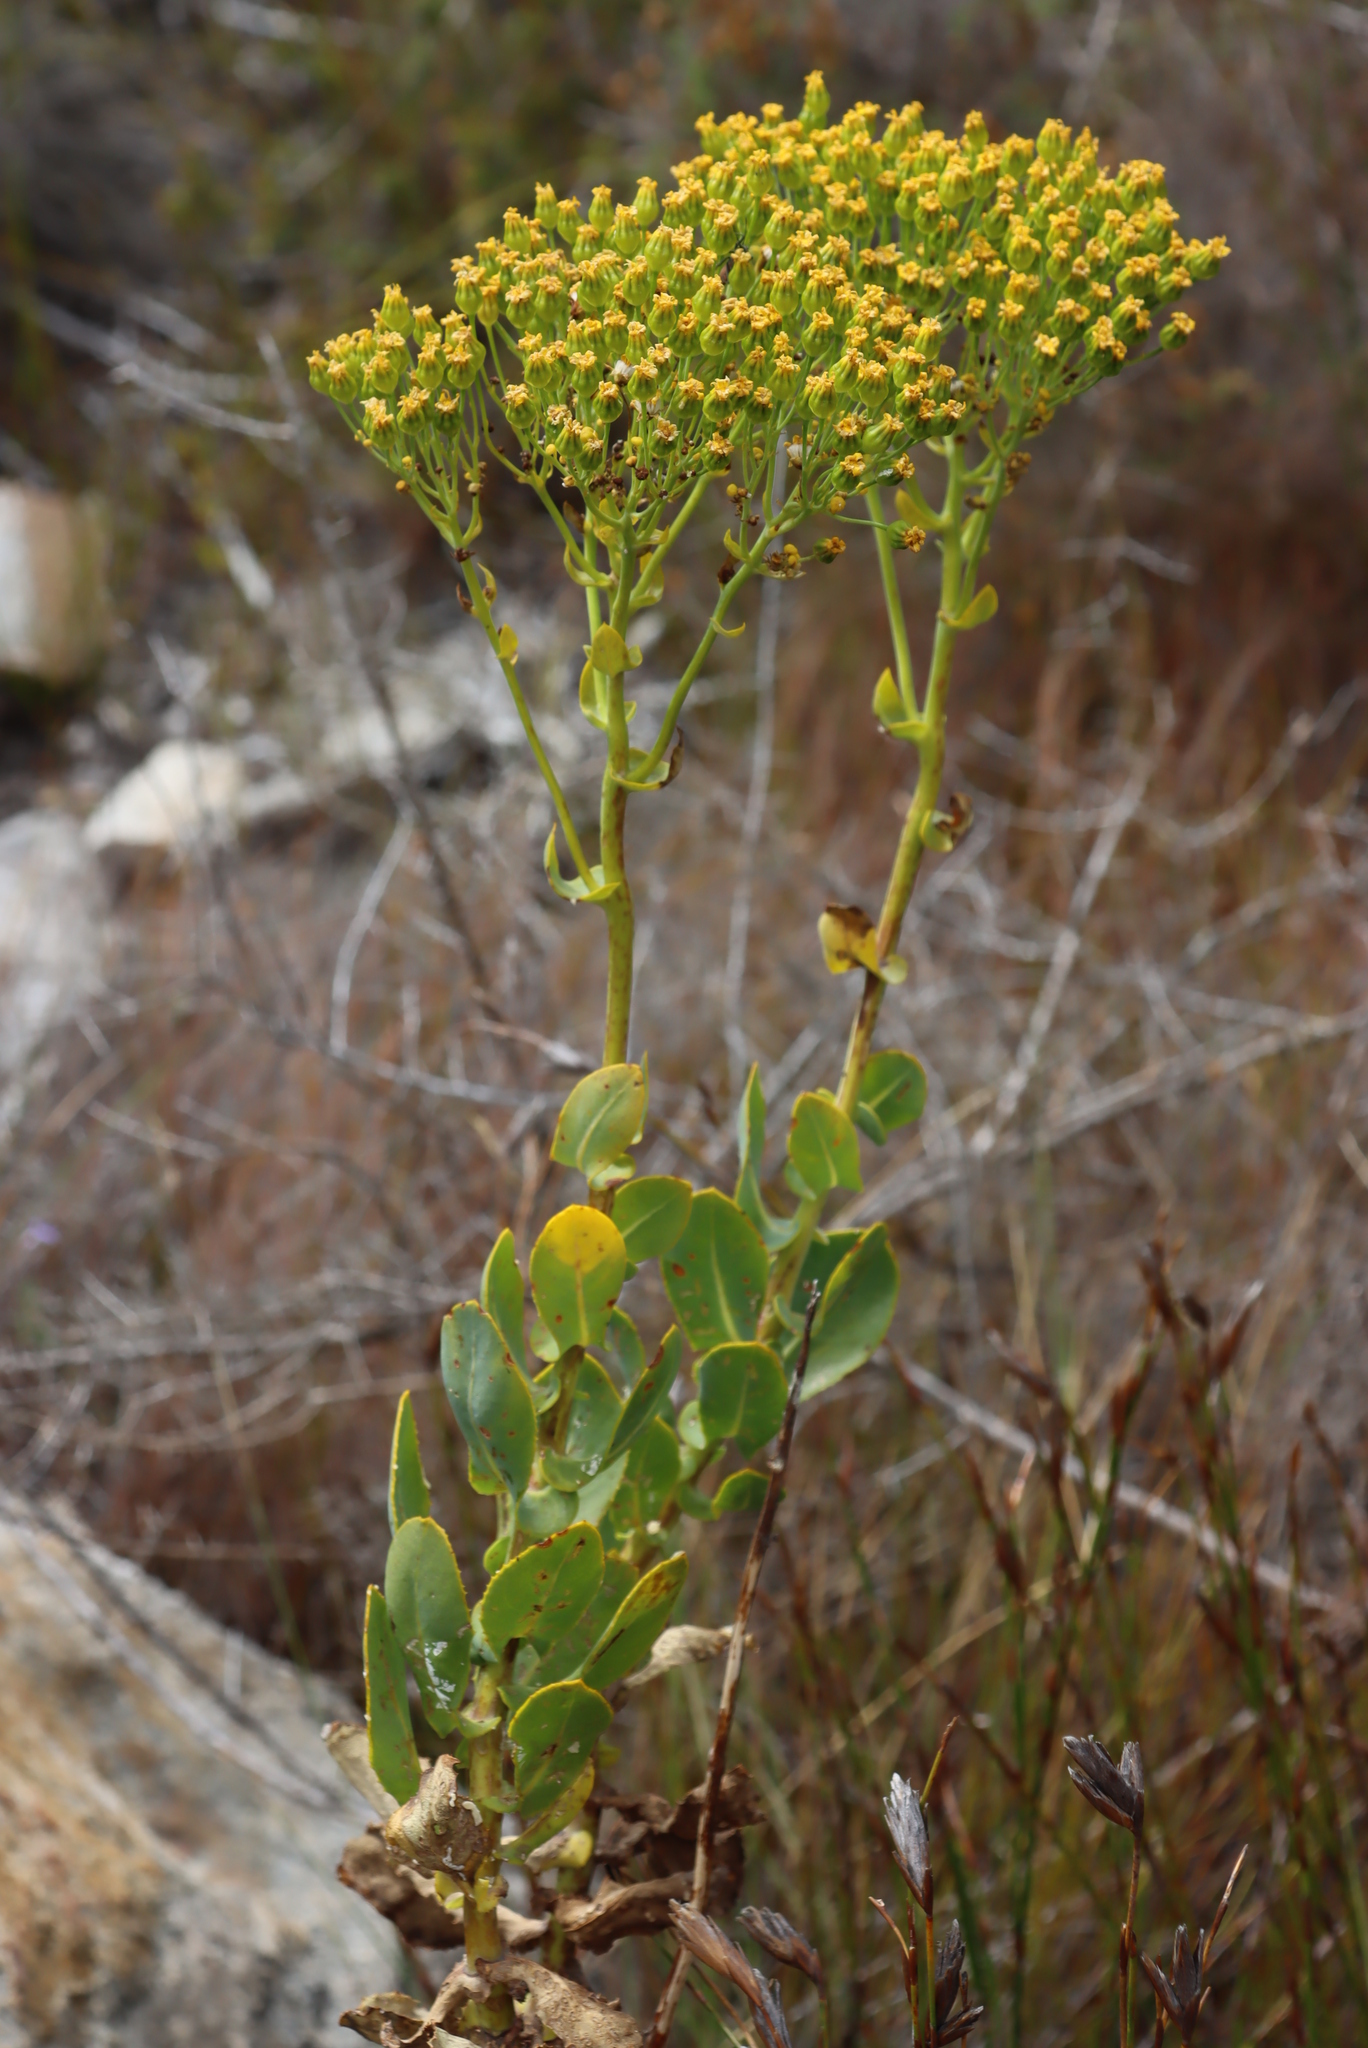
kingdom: Plantae
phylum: Tracheophyta
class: Magnoliopsida
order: Asterales
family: Asteraceae
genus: Othonna
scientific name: Othonna parviflora
